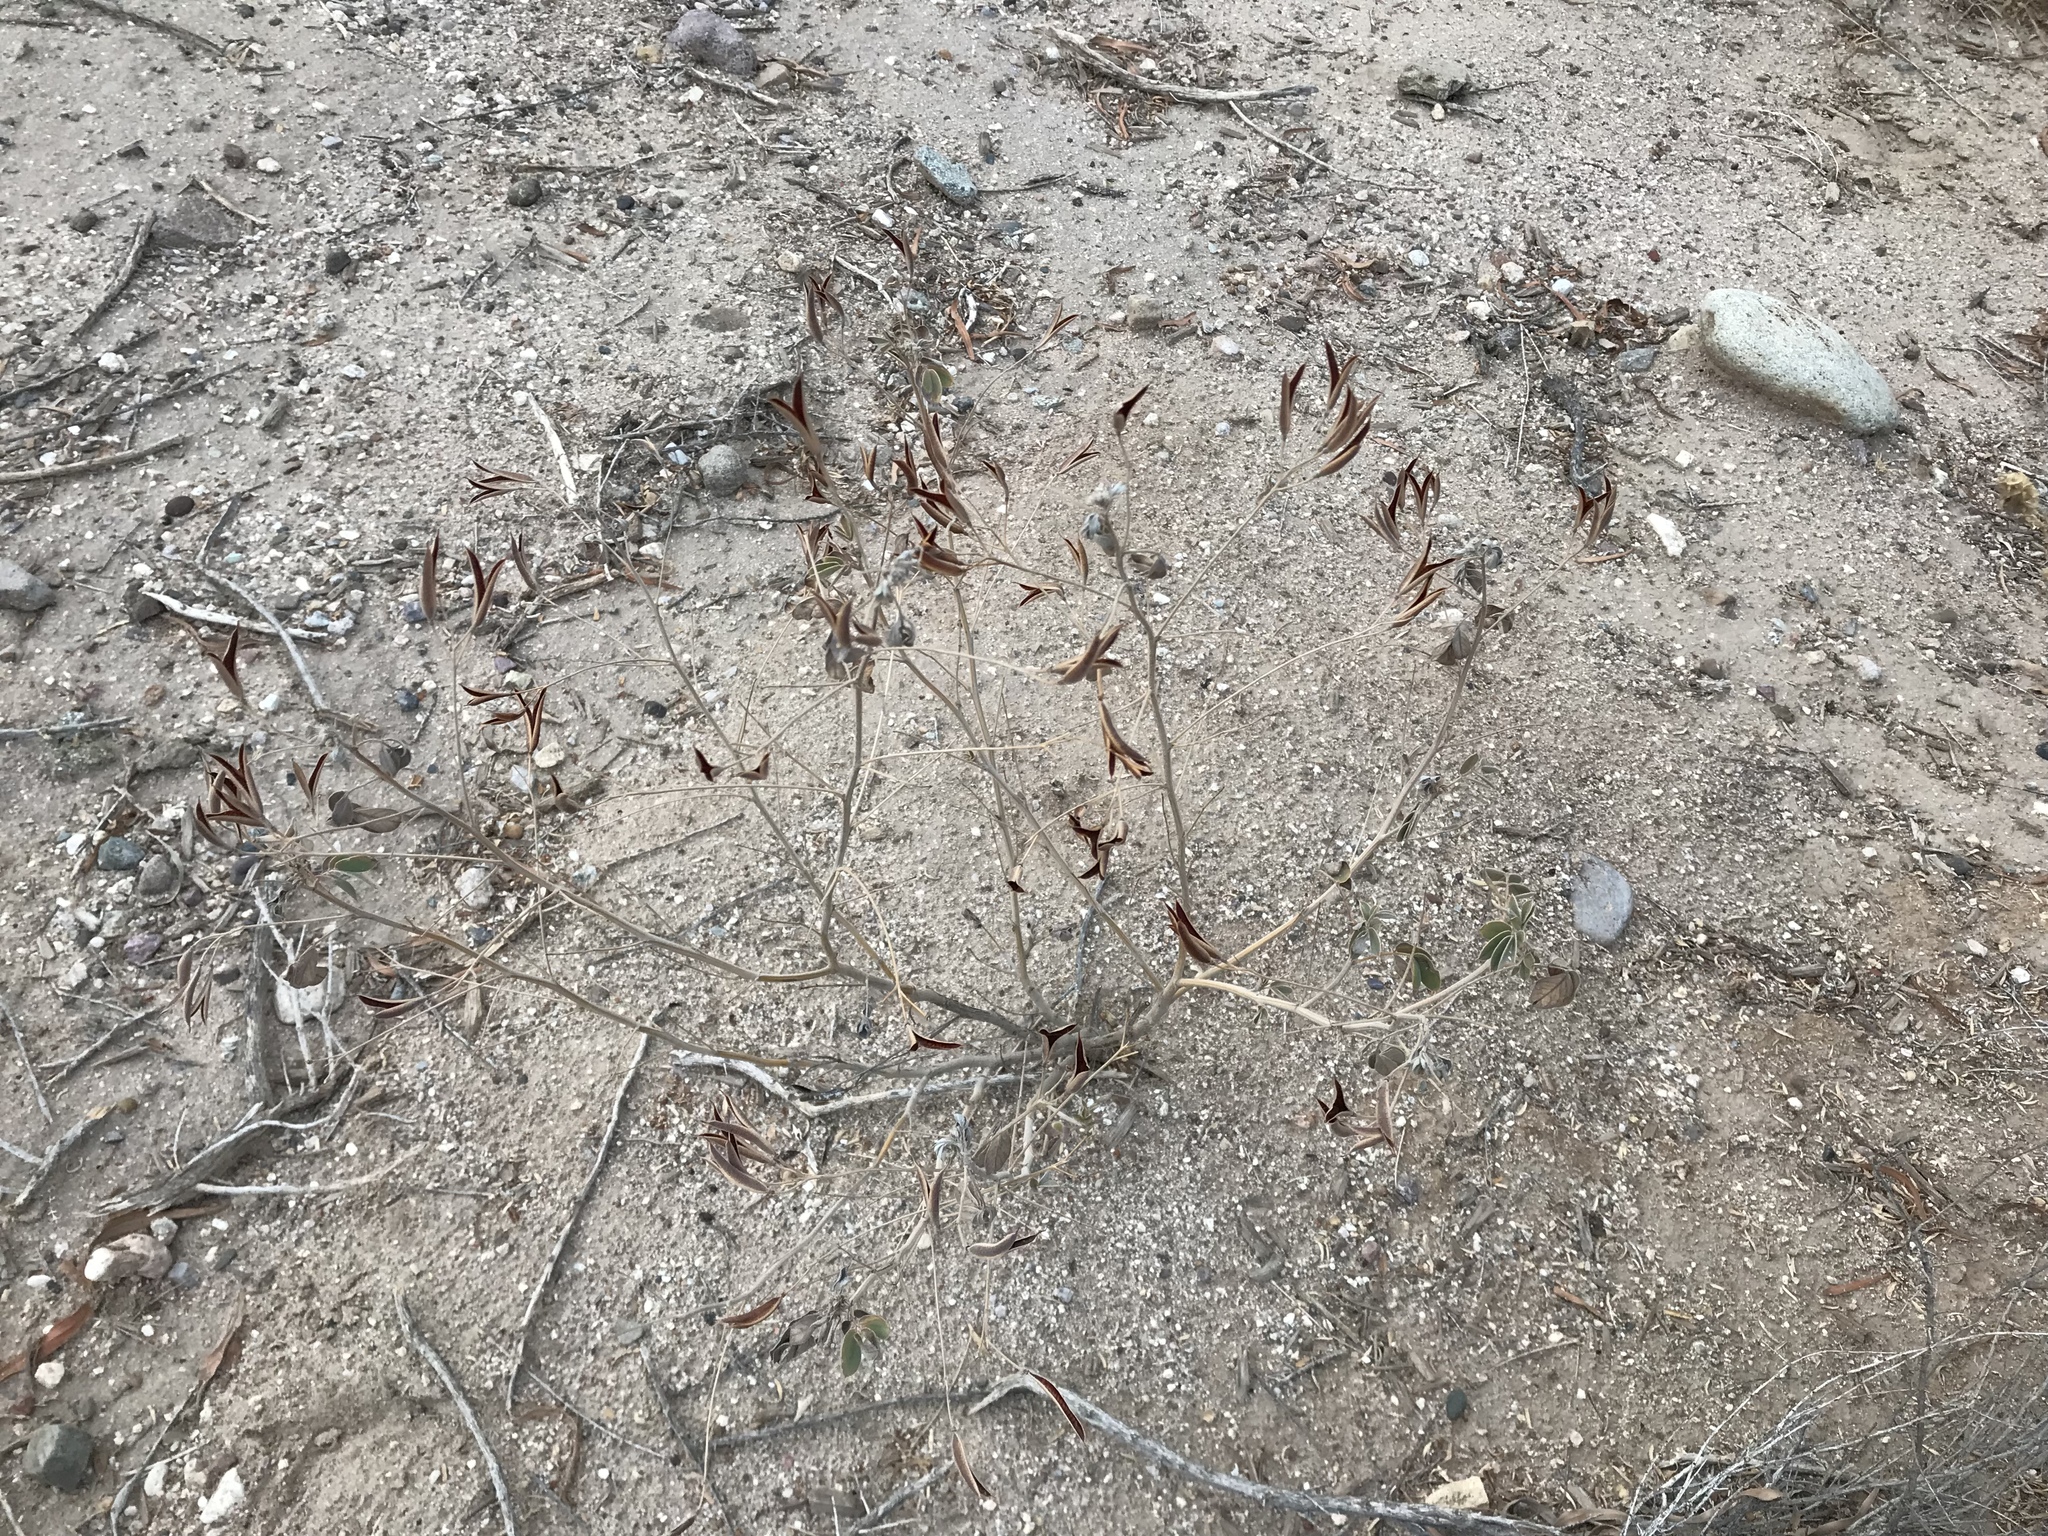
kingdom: Plantae
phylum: Tracheophyta
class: Magnoliopsida
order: Fabales
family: Fabaceae
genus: Senna
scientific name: Senna covesii
